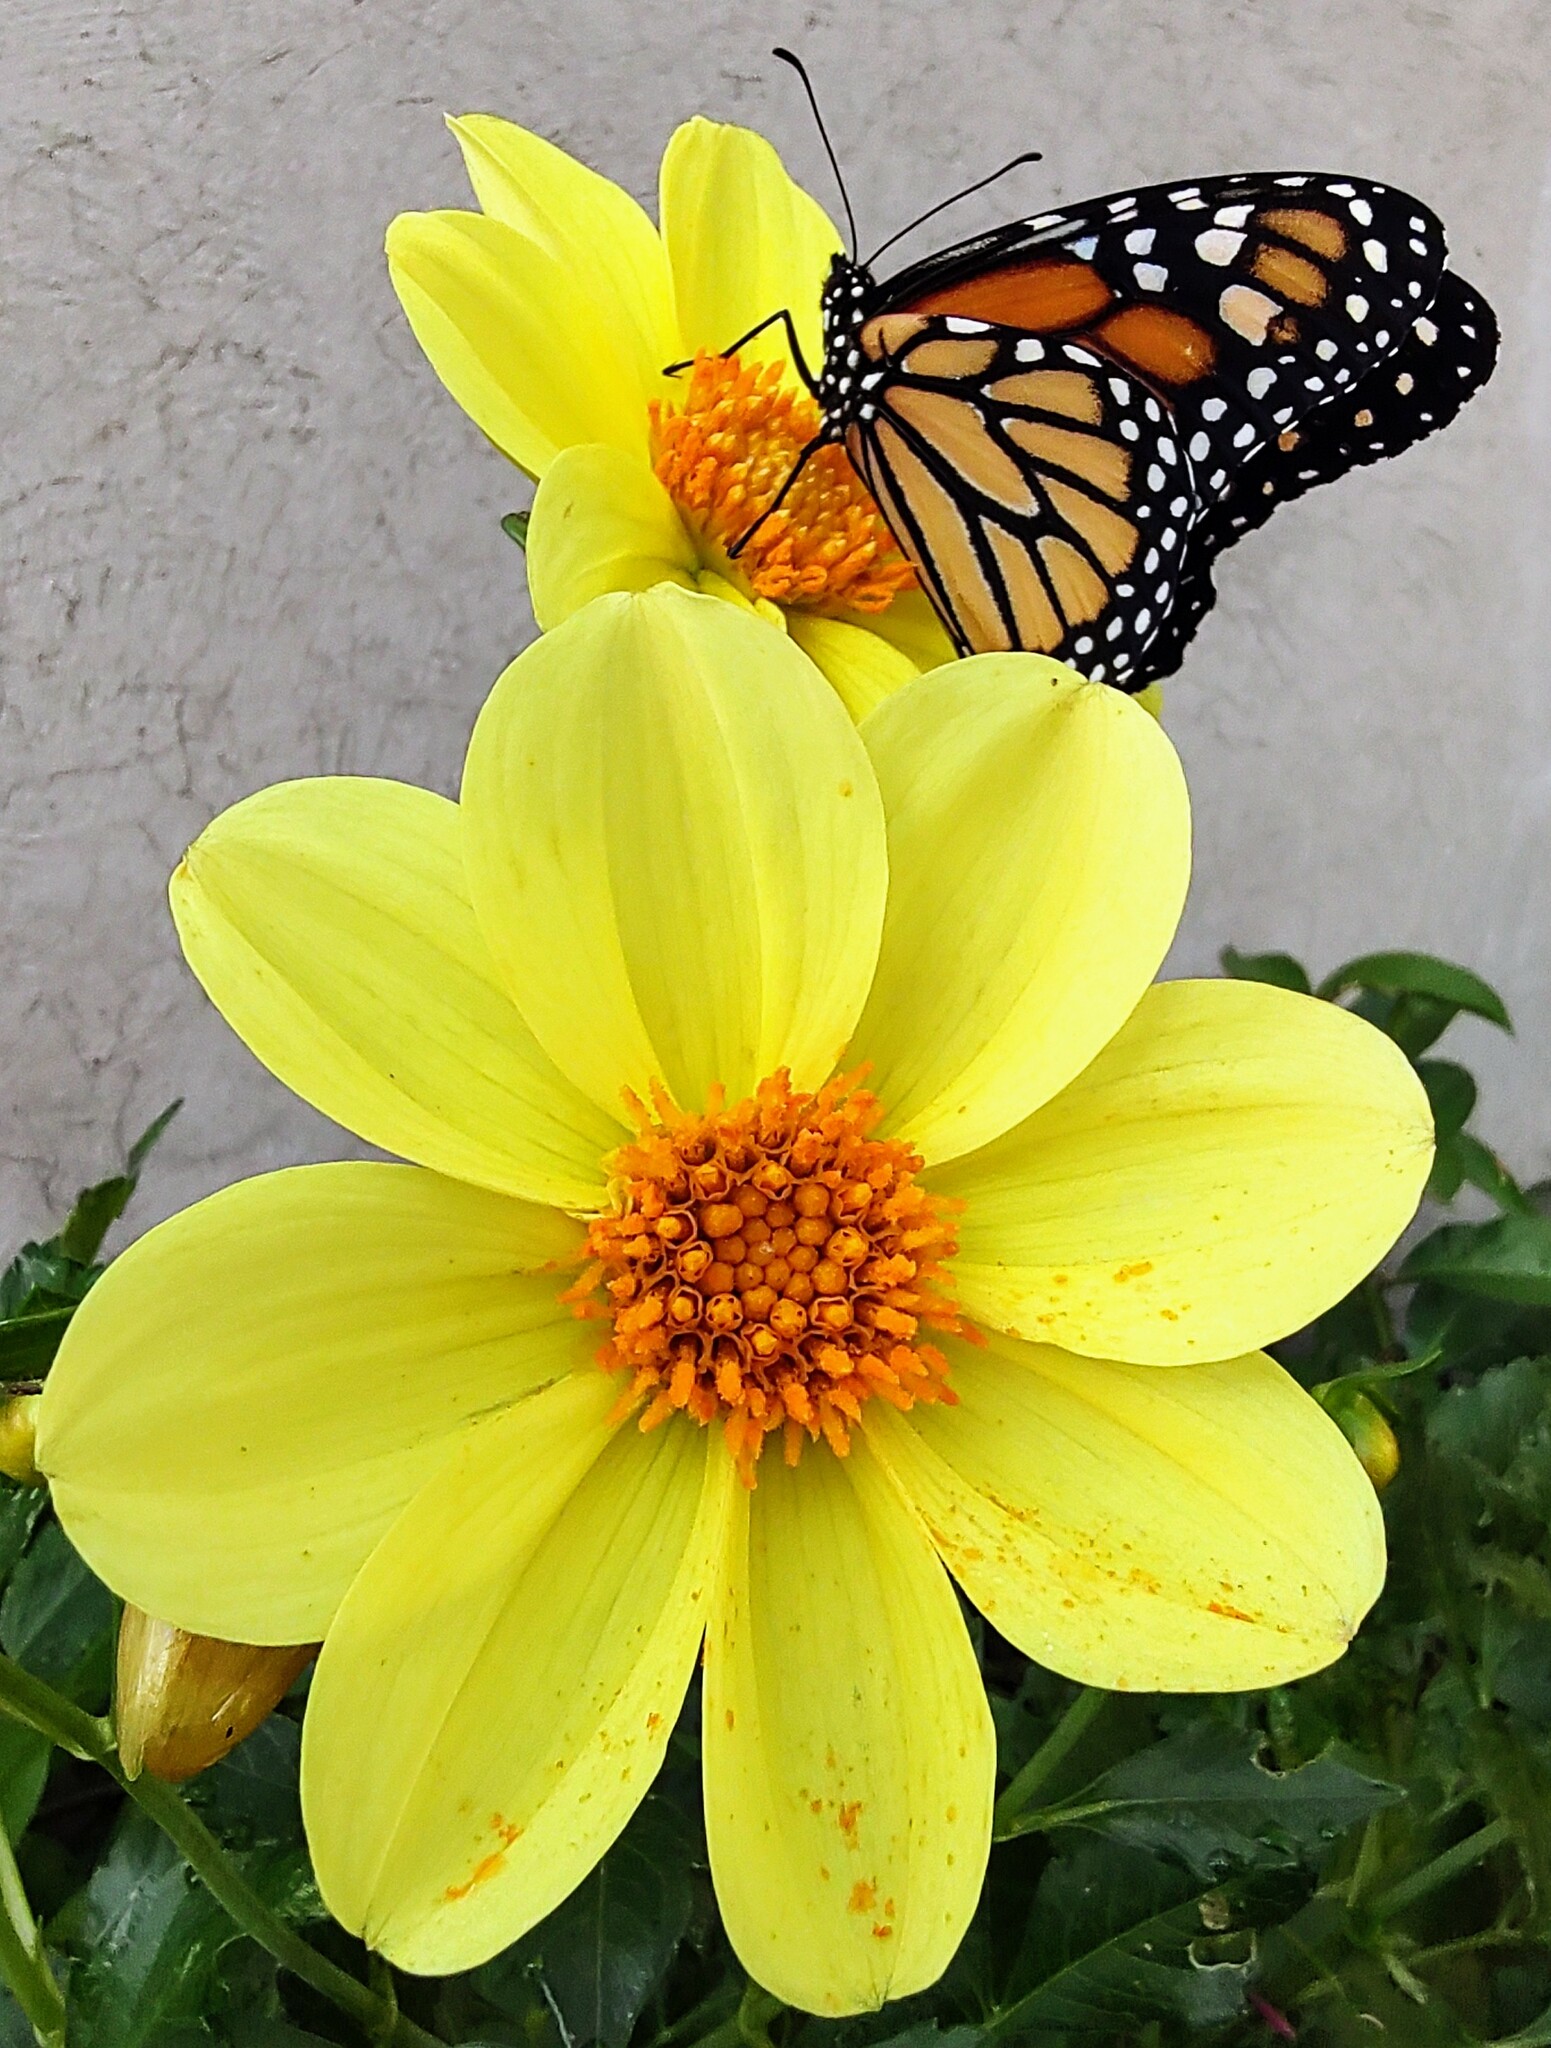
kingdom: Plantae
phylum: Tracheophyta
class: Magnoliopsida
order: Asterales
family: Asteraceae
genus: Dahlia
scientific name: Dahlia coccinea
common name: Red dahlia
